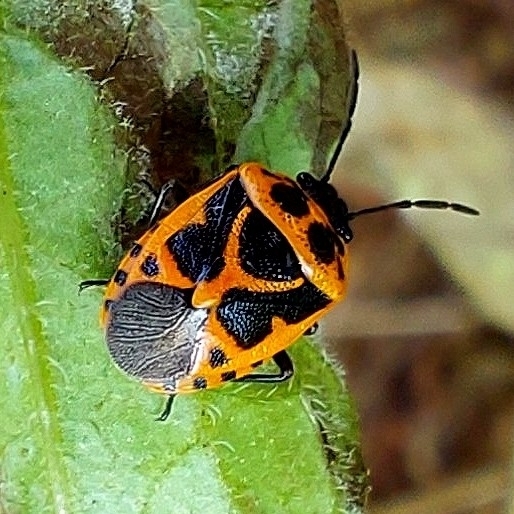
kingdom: Animalia
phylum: Arthropoda
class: Insecta
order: Hemiptera
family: Pentatomidae
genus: Eurydema
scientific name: Eurydema dominulus
